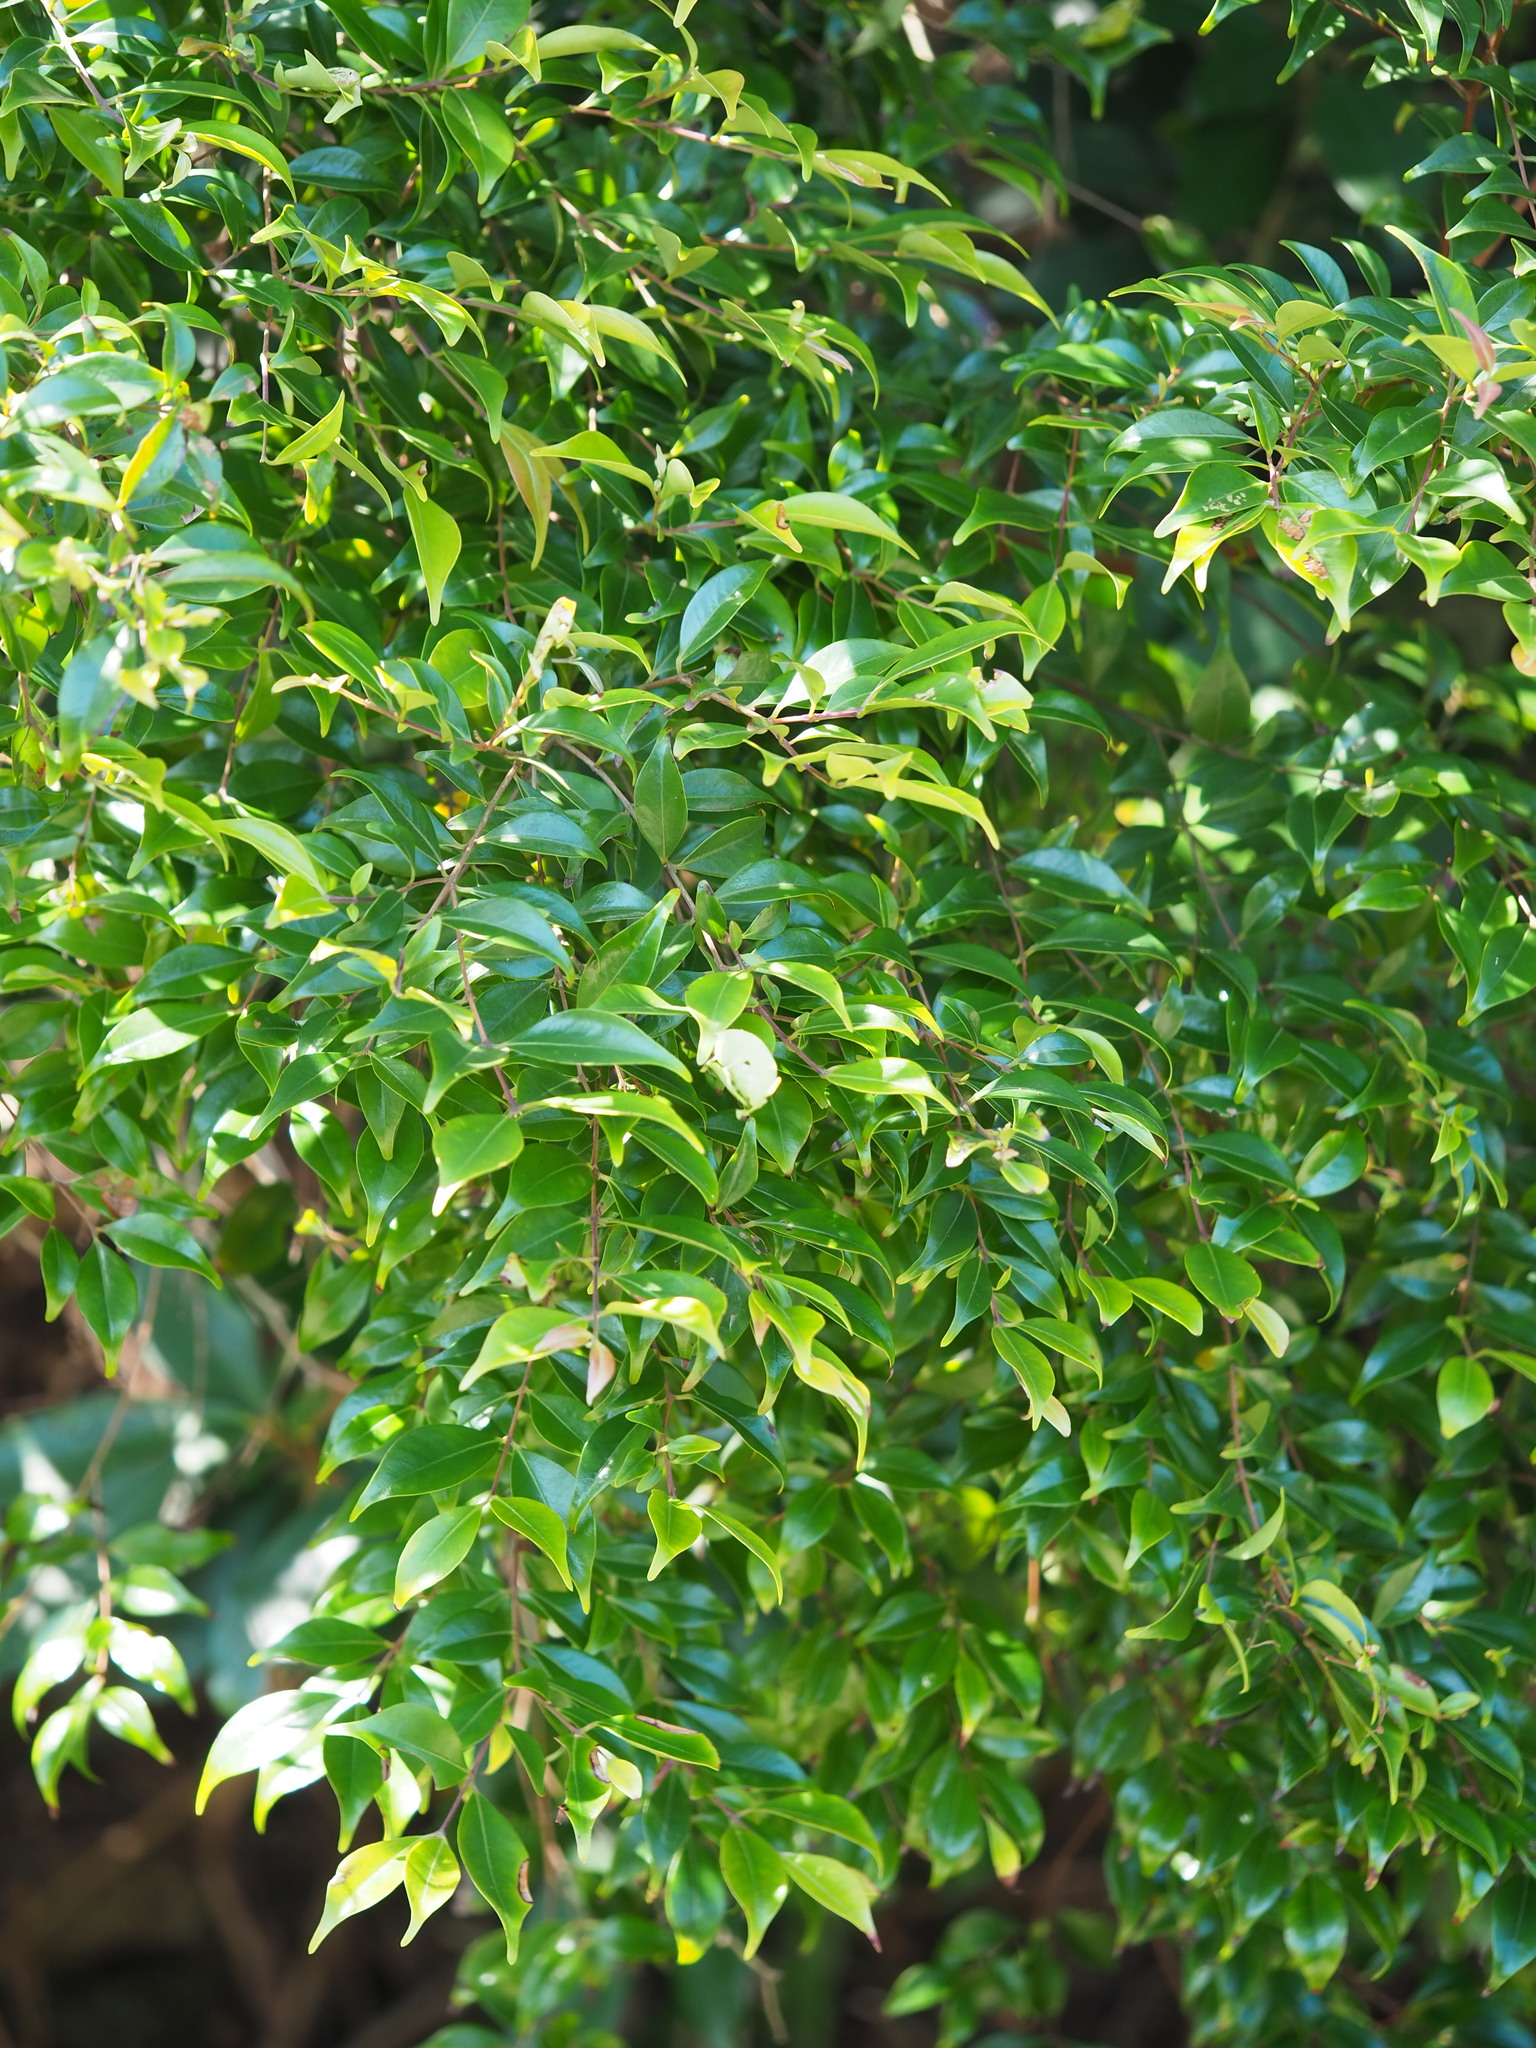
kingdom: Plantae
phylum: Tracheophyta
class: Magnoliopsida
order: Myrtales
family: Myrtaceae
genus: Decaspermum
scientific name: Decaspermum gracilentum
